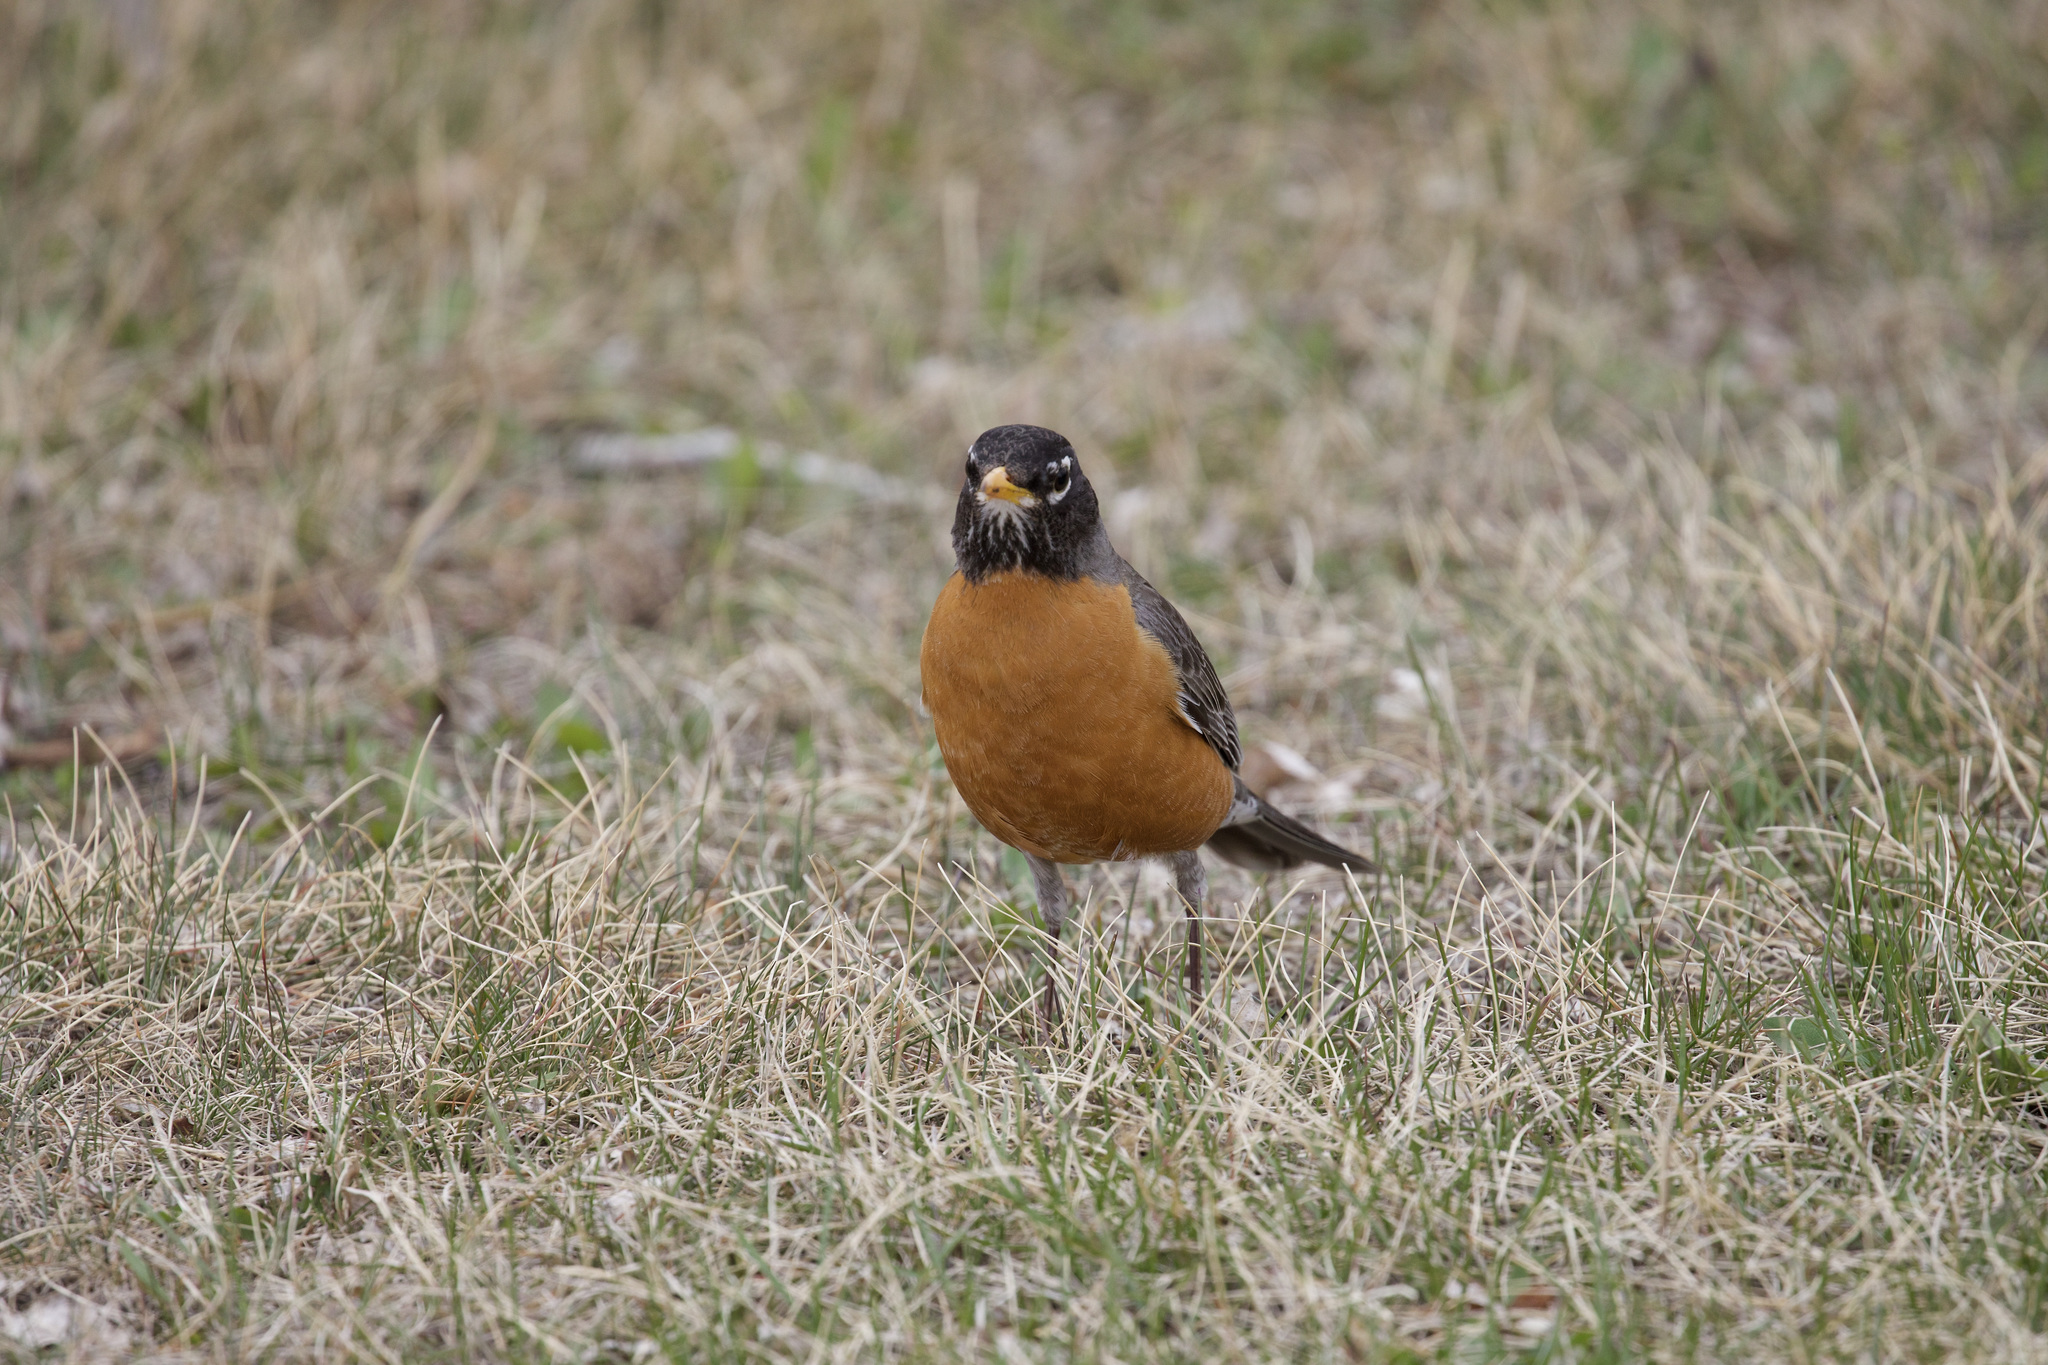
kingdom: Animalia
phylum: Chordata
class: Aves
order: Passeriformes
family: Turdidae
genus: Turdus
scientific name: Turdus migratorius
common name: American robin
